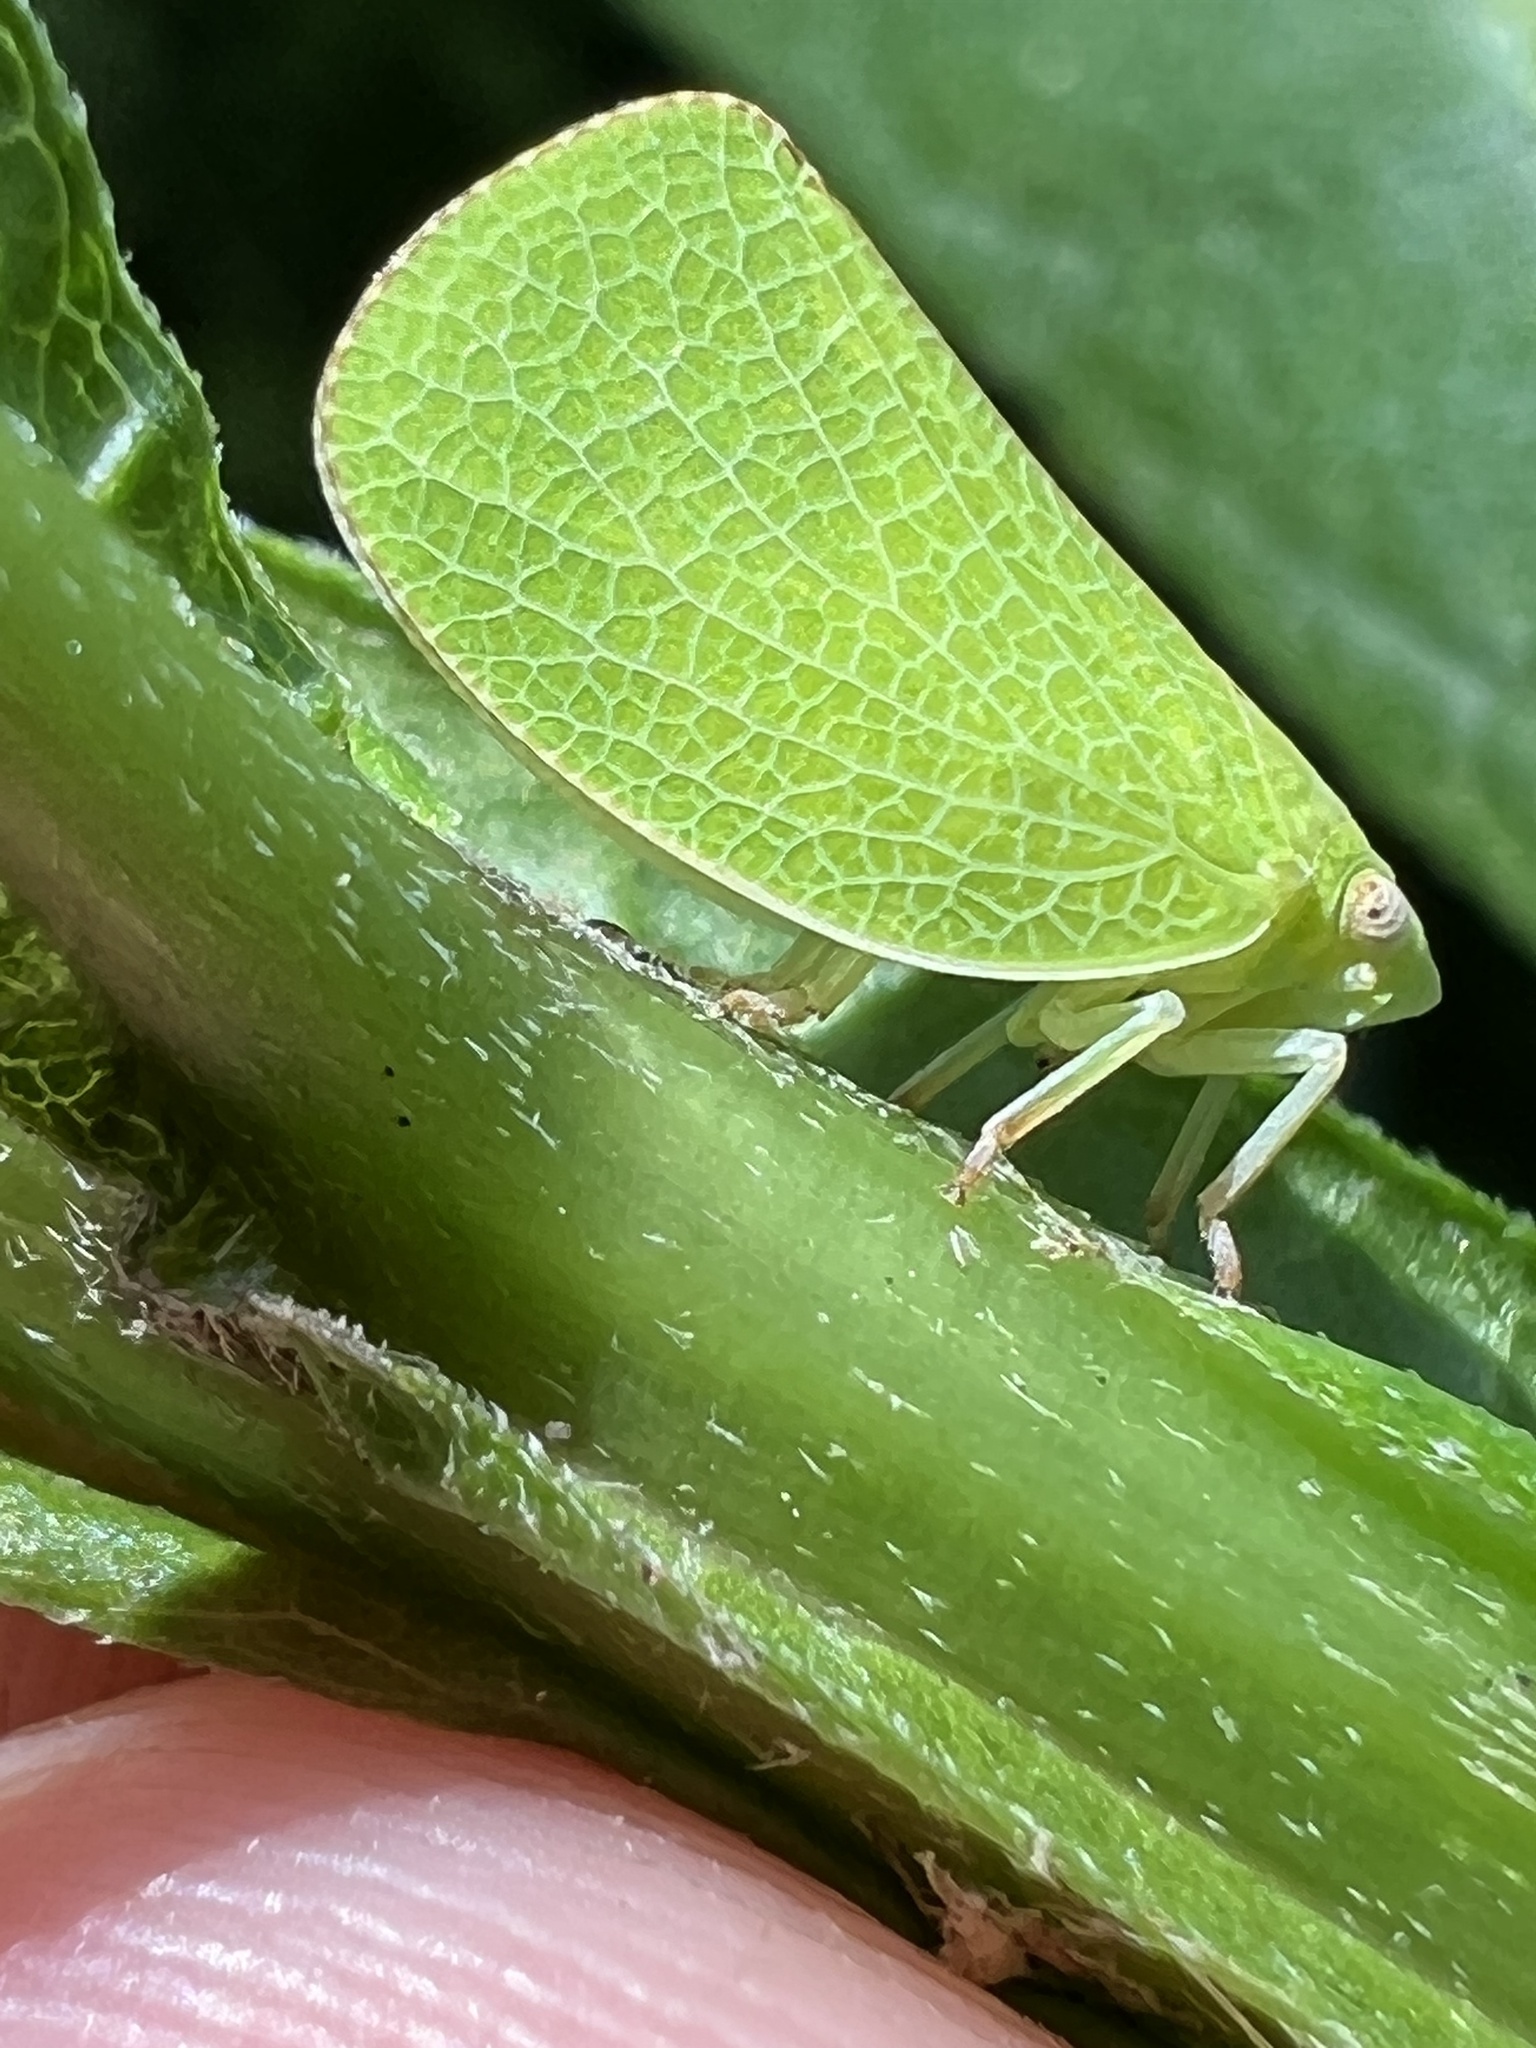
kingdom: Animalia
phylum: Arthropoda
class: Insecta
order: Hemiptera
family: Acanaloniidae
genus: Acanalonia
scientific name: Acanalonia conica
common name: Green cone-headed planthopper
